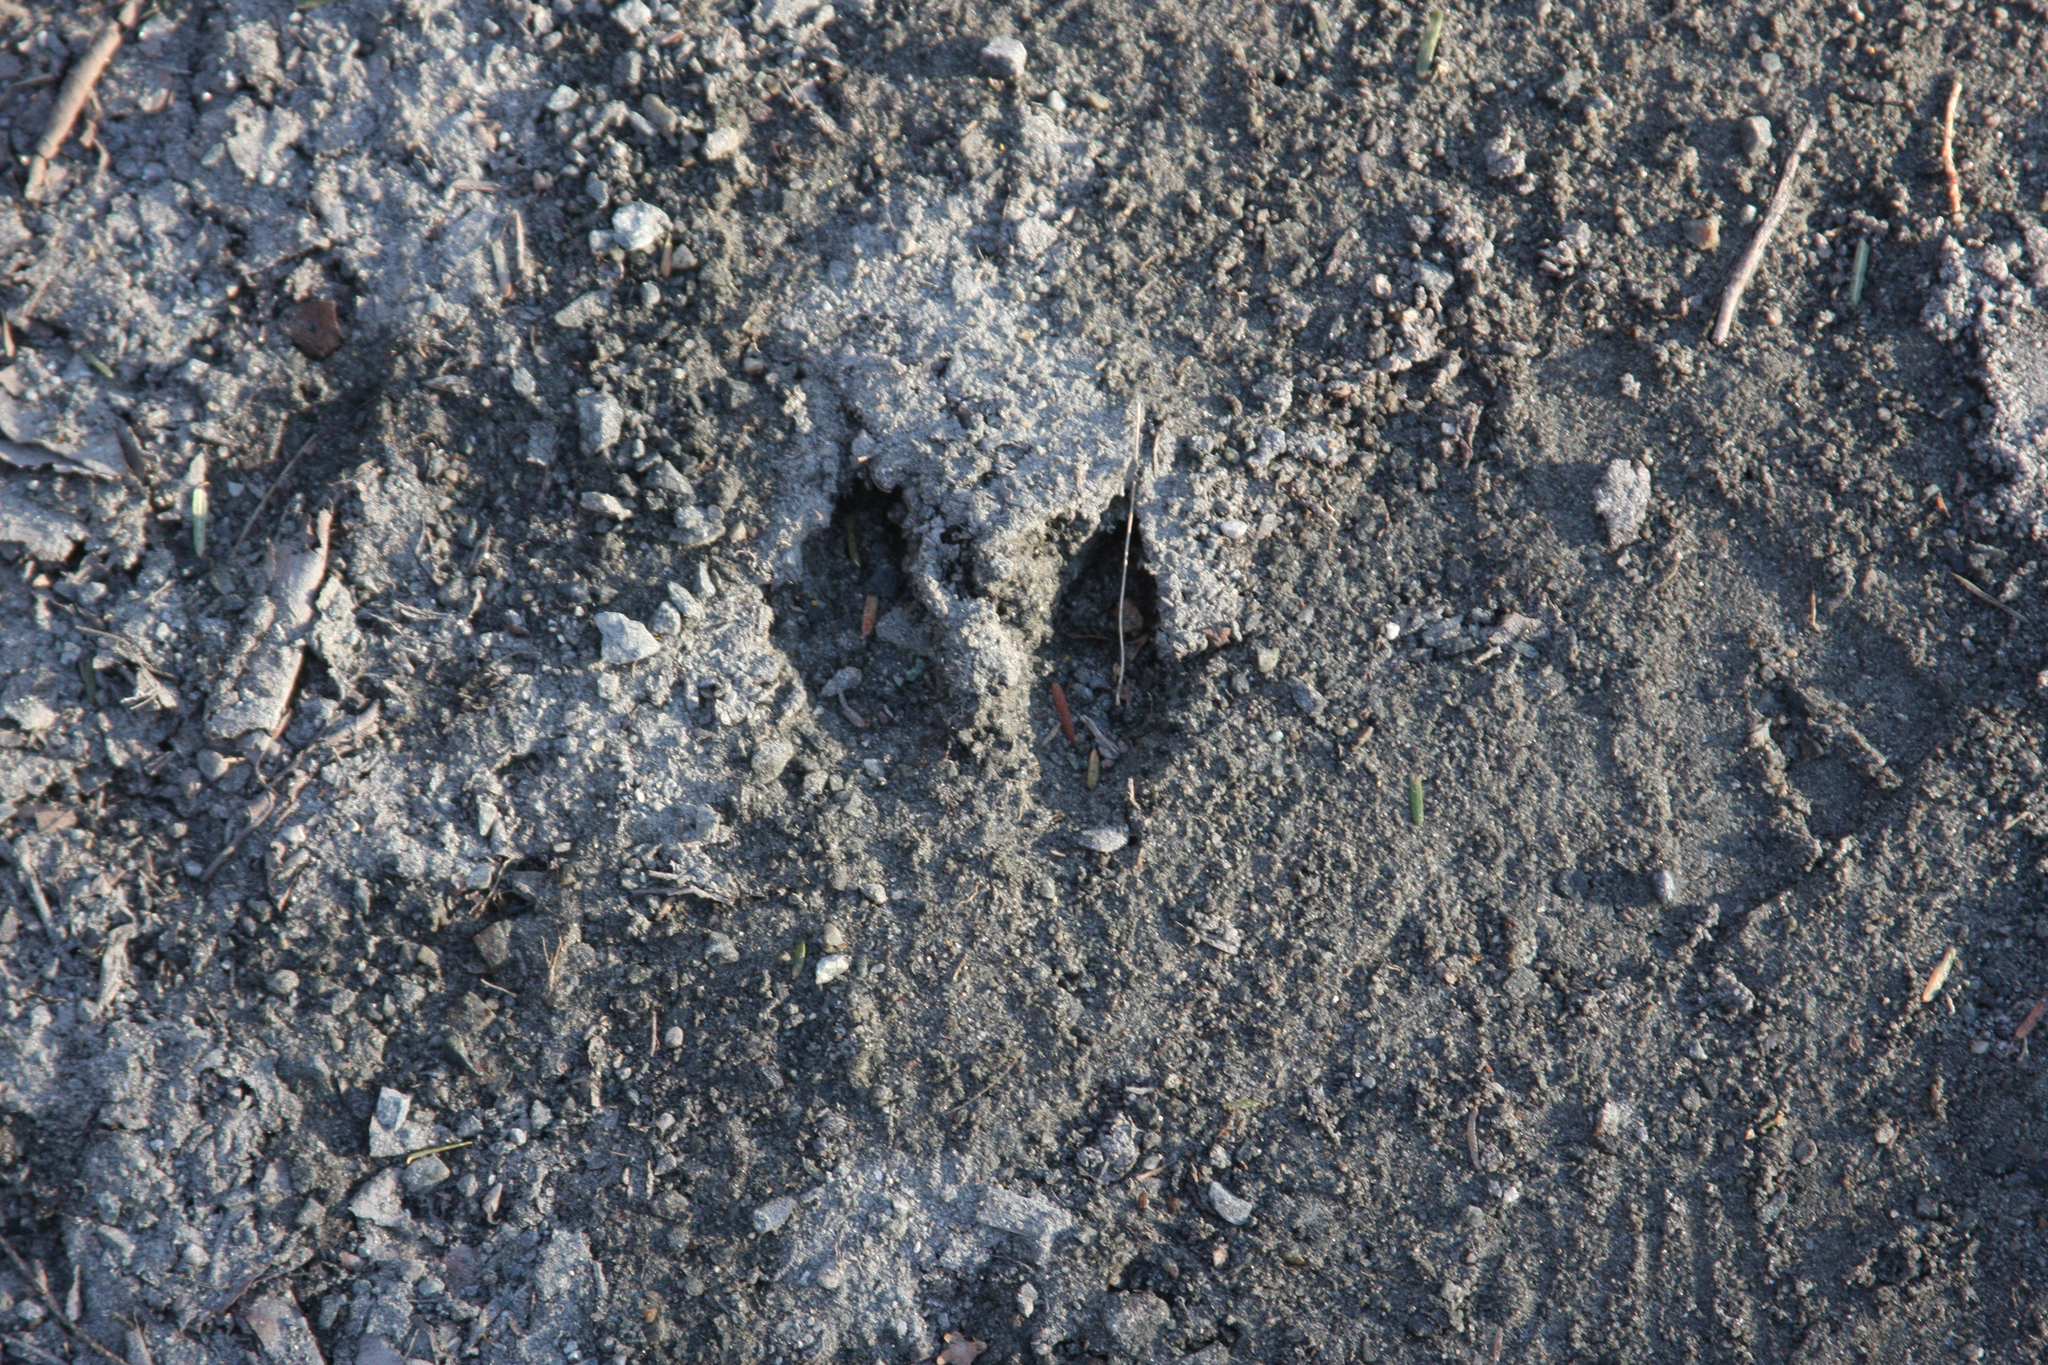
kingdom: Animalia
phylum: Chordata
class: Mammalia
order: Artiodactyla
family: Cervidae
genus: Odocoileus
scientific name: Odocoileus virginianus
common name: White-tailed deer
